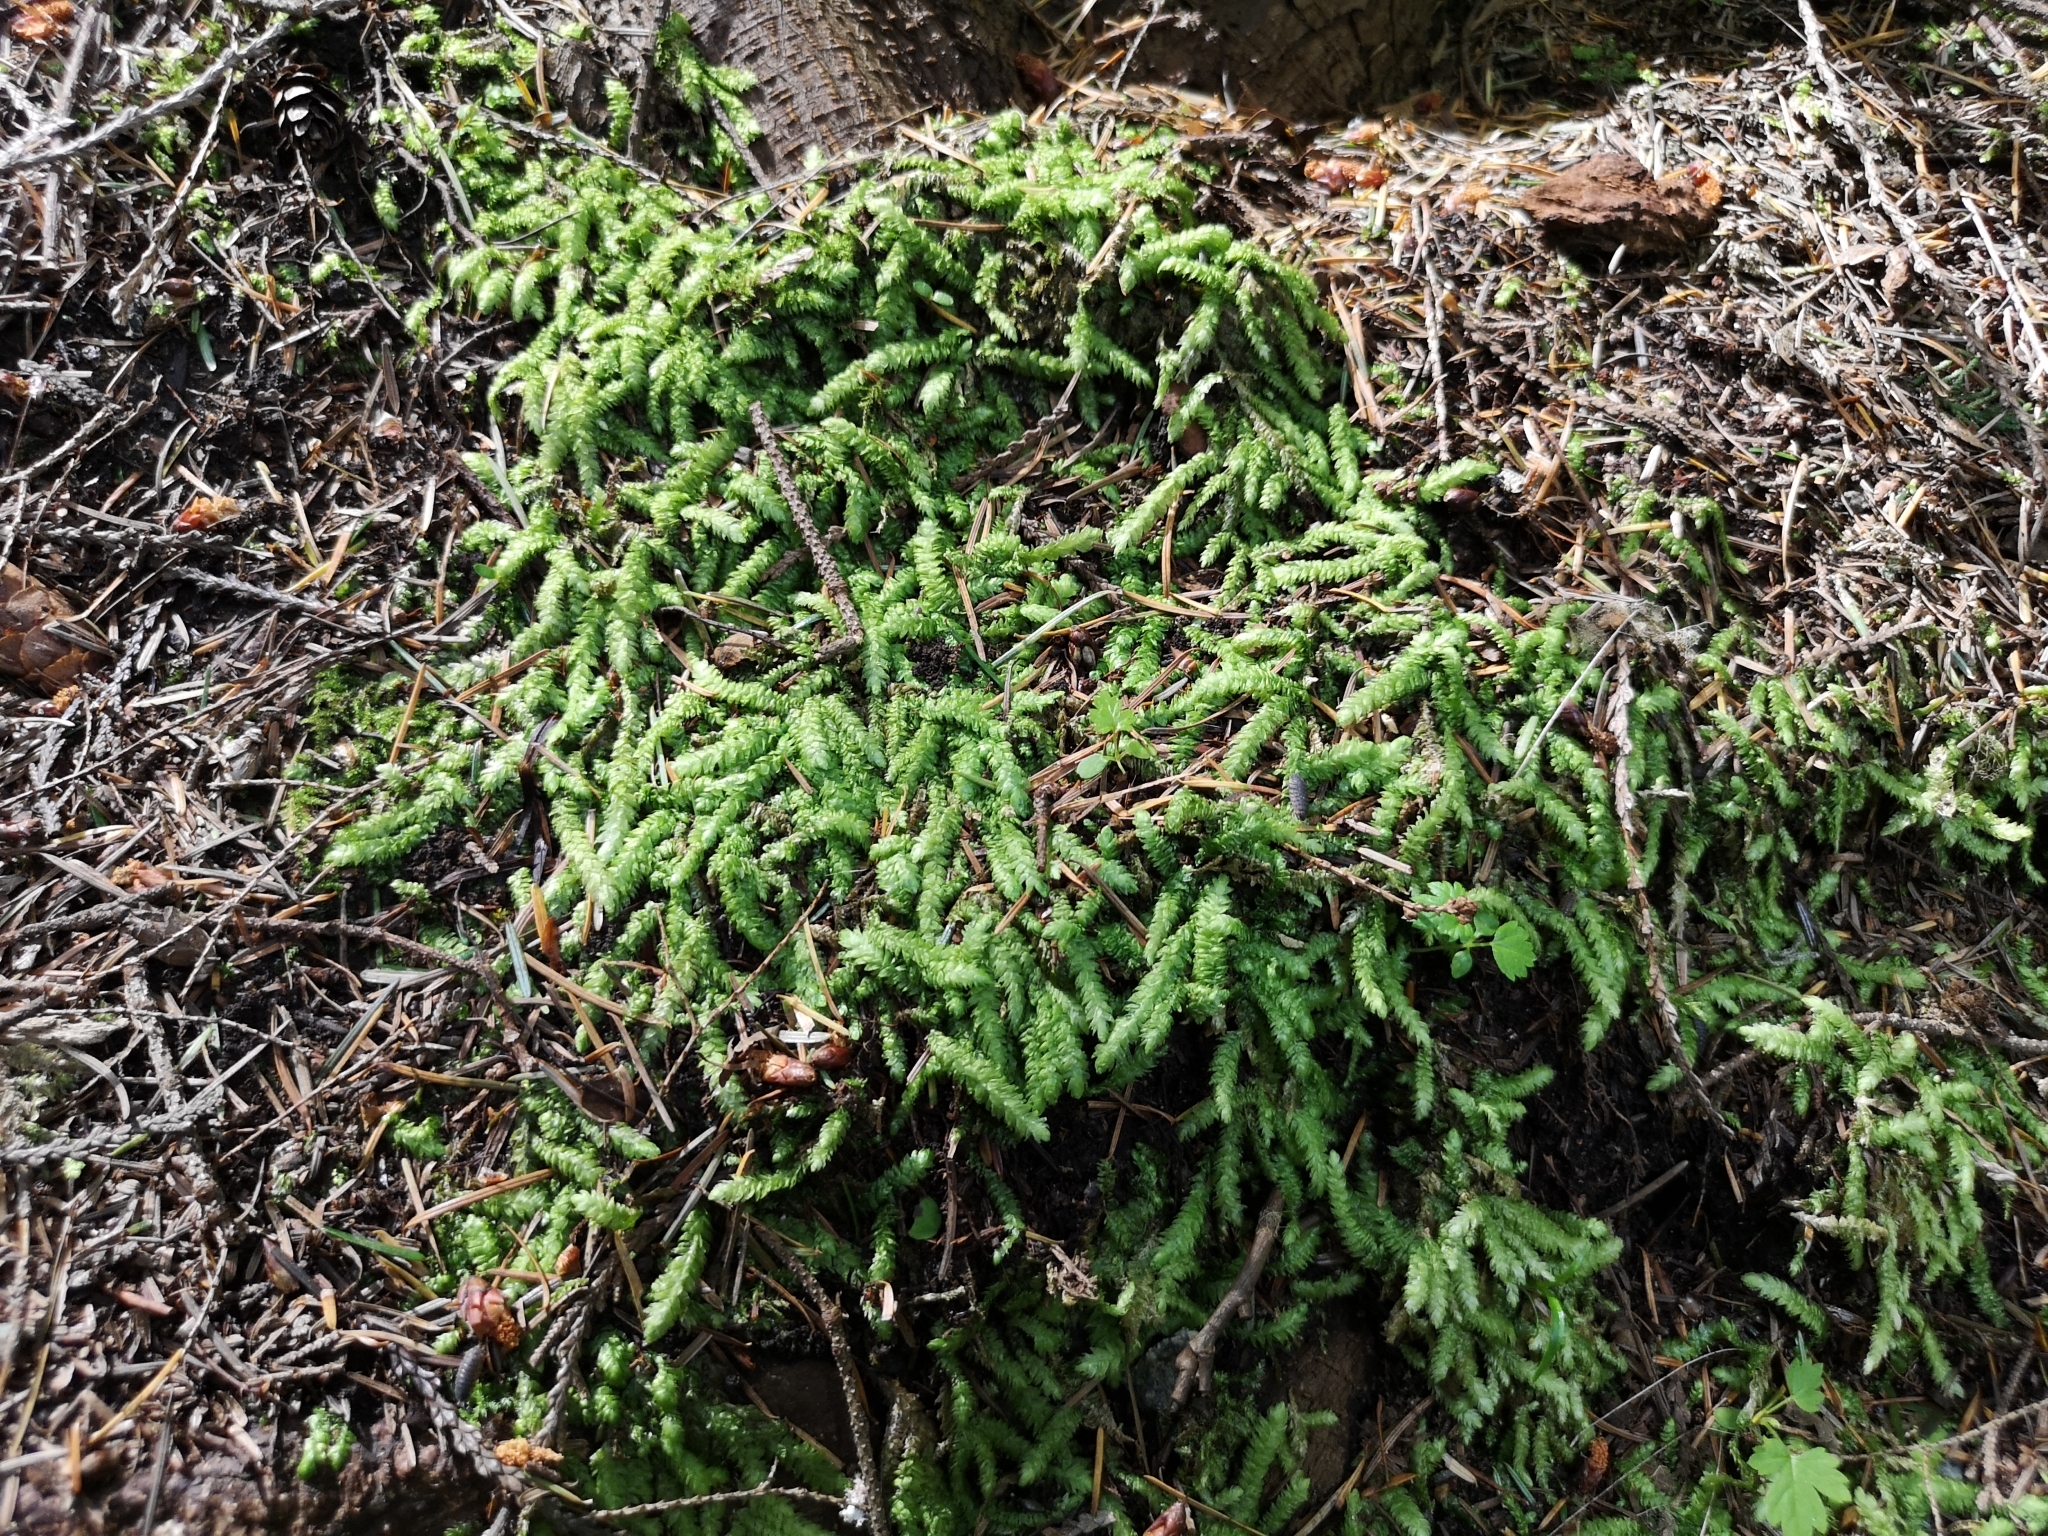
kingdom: Plantae
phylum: Bryophyta
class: Bryopsida
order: Hypnales
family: Plagiotheciaceae
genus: Plagiothecium
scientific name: Plagiothecium undulatum
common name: Waved silk-moss
